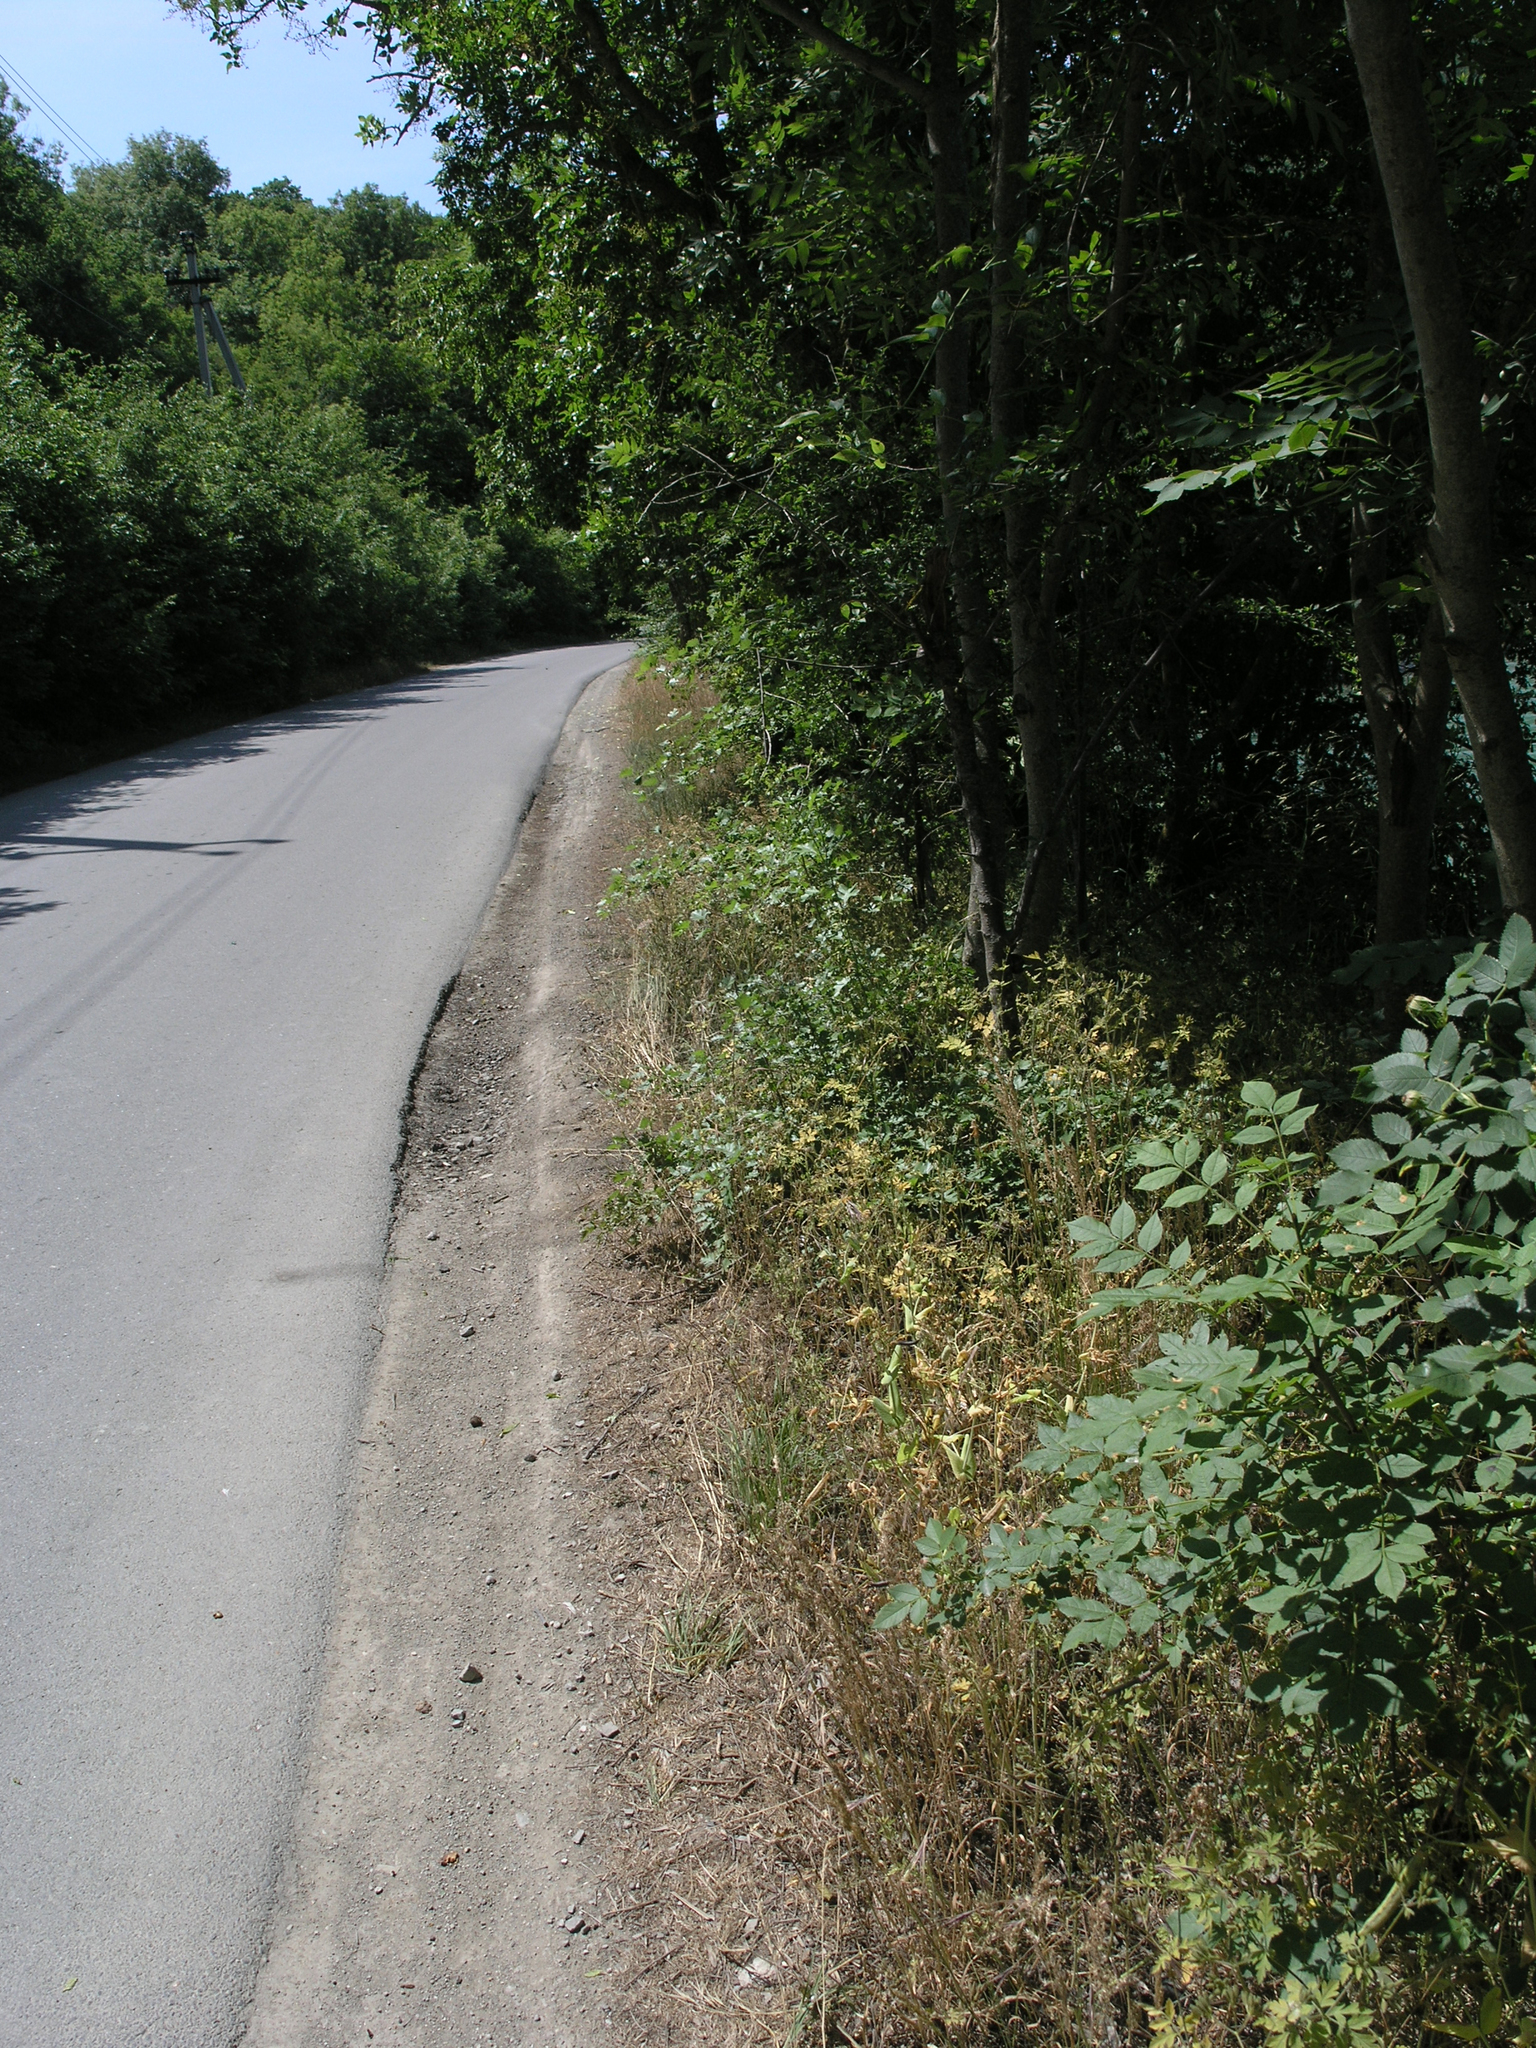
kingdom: Plantae
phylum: Tracheophyta
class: Magnoliopsida
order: Fabales
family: Fabaceae
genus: Lathyrus
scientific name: Lathyrus oleraceus
